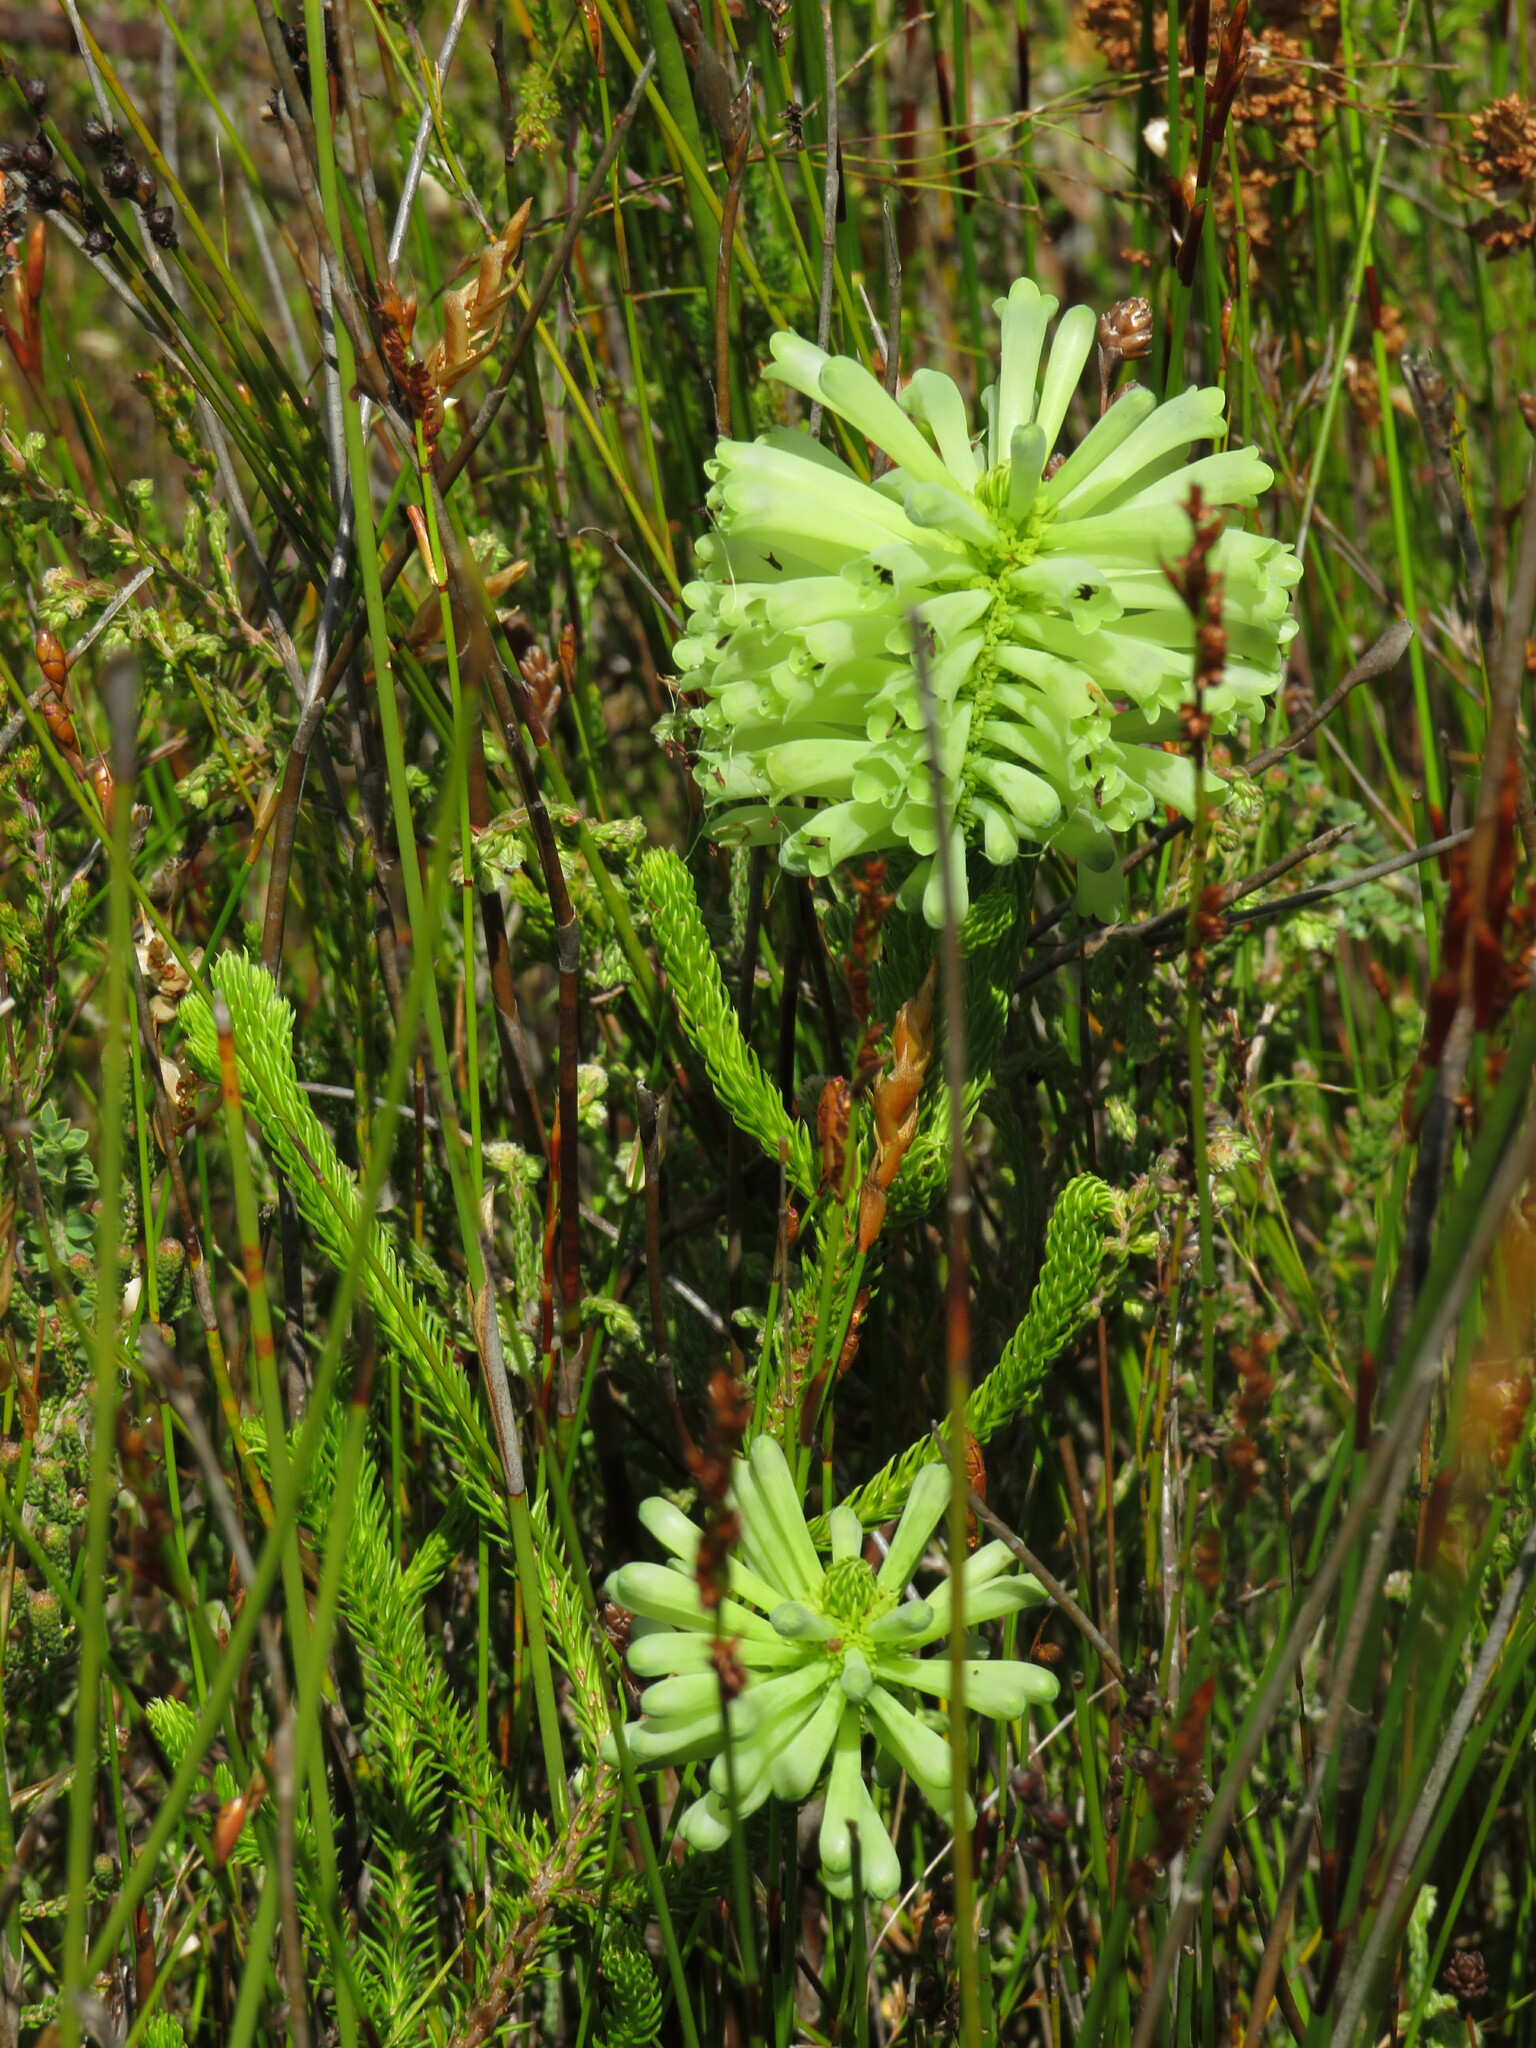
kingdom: Plantae
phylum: Tracheophyta
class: Magnoliopsida
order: Ericales
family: Ericaceae
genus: Erica
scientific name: Erica sessiliflora
